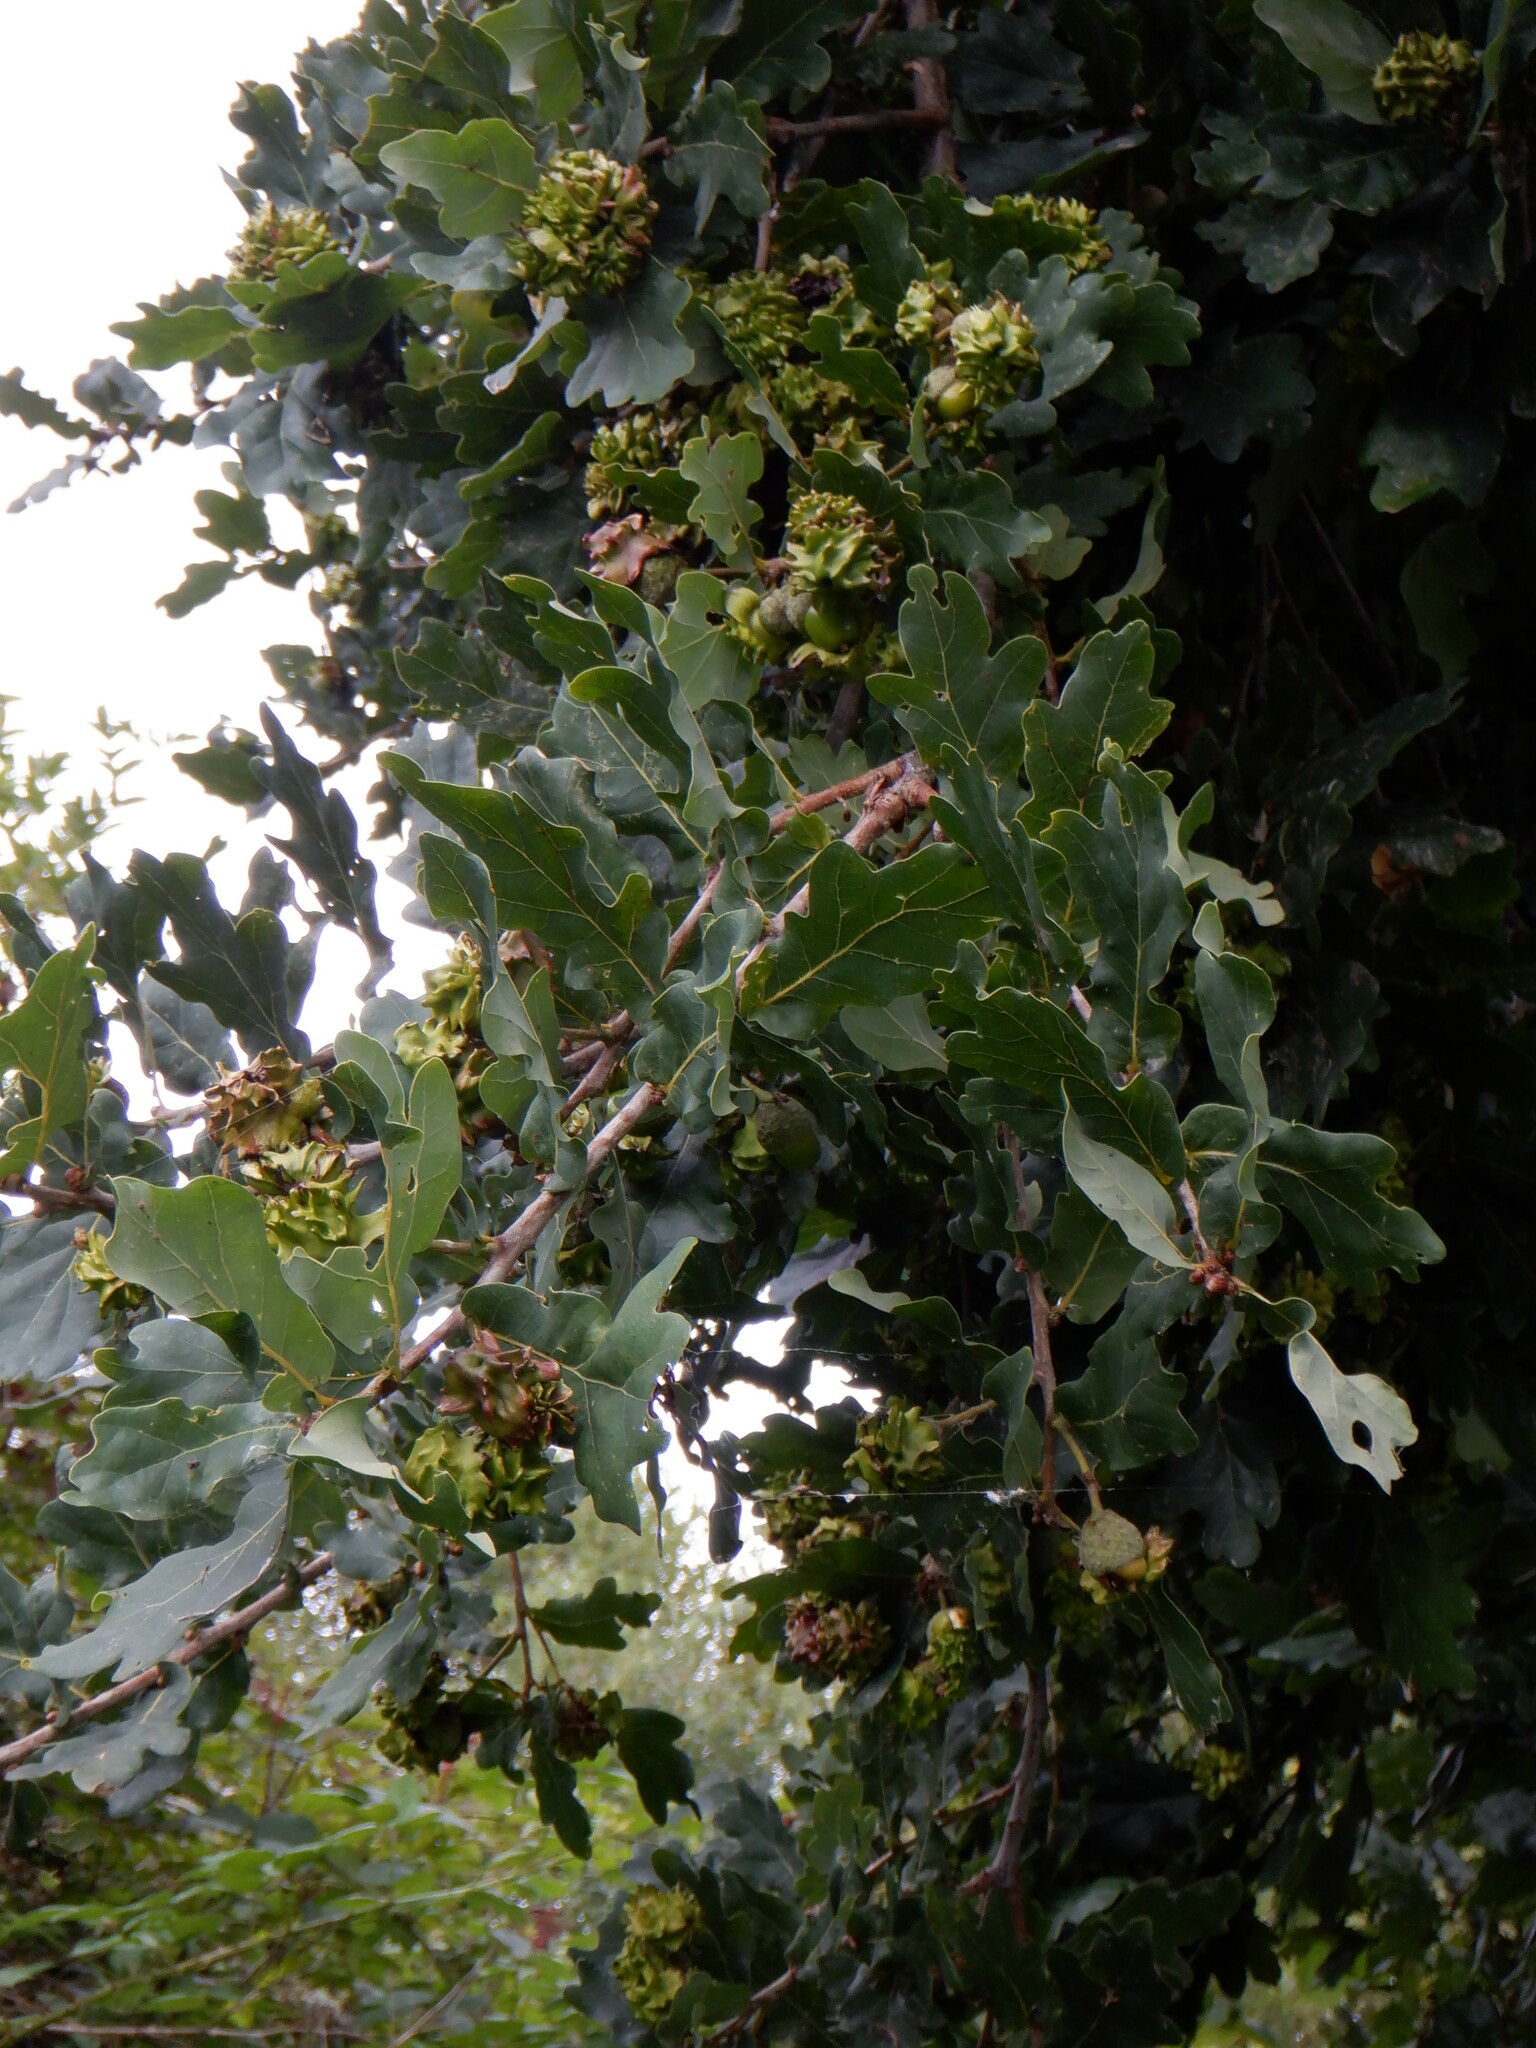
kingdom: Animalia
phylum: Arthropoda
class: Insecta
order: Hymenoptera
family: Cynipidae
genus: Andricus
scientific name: Andricus quercuscalicis
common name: Knopper gall
